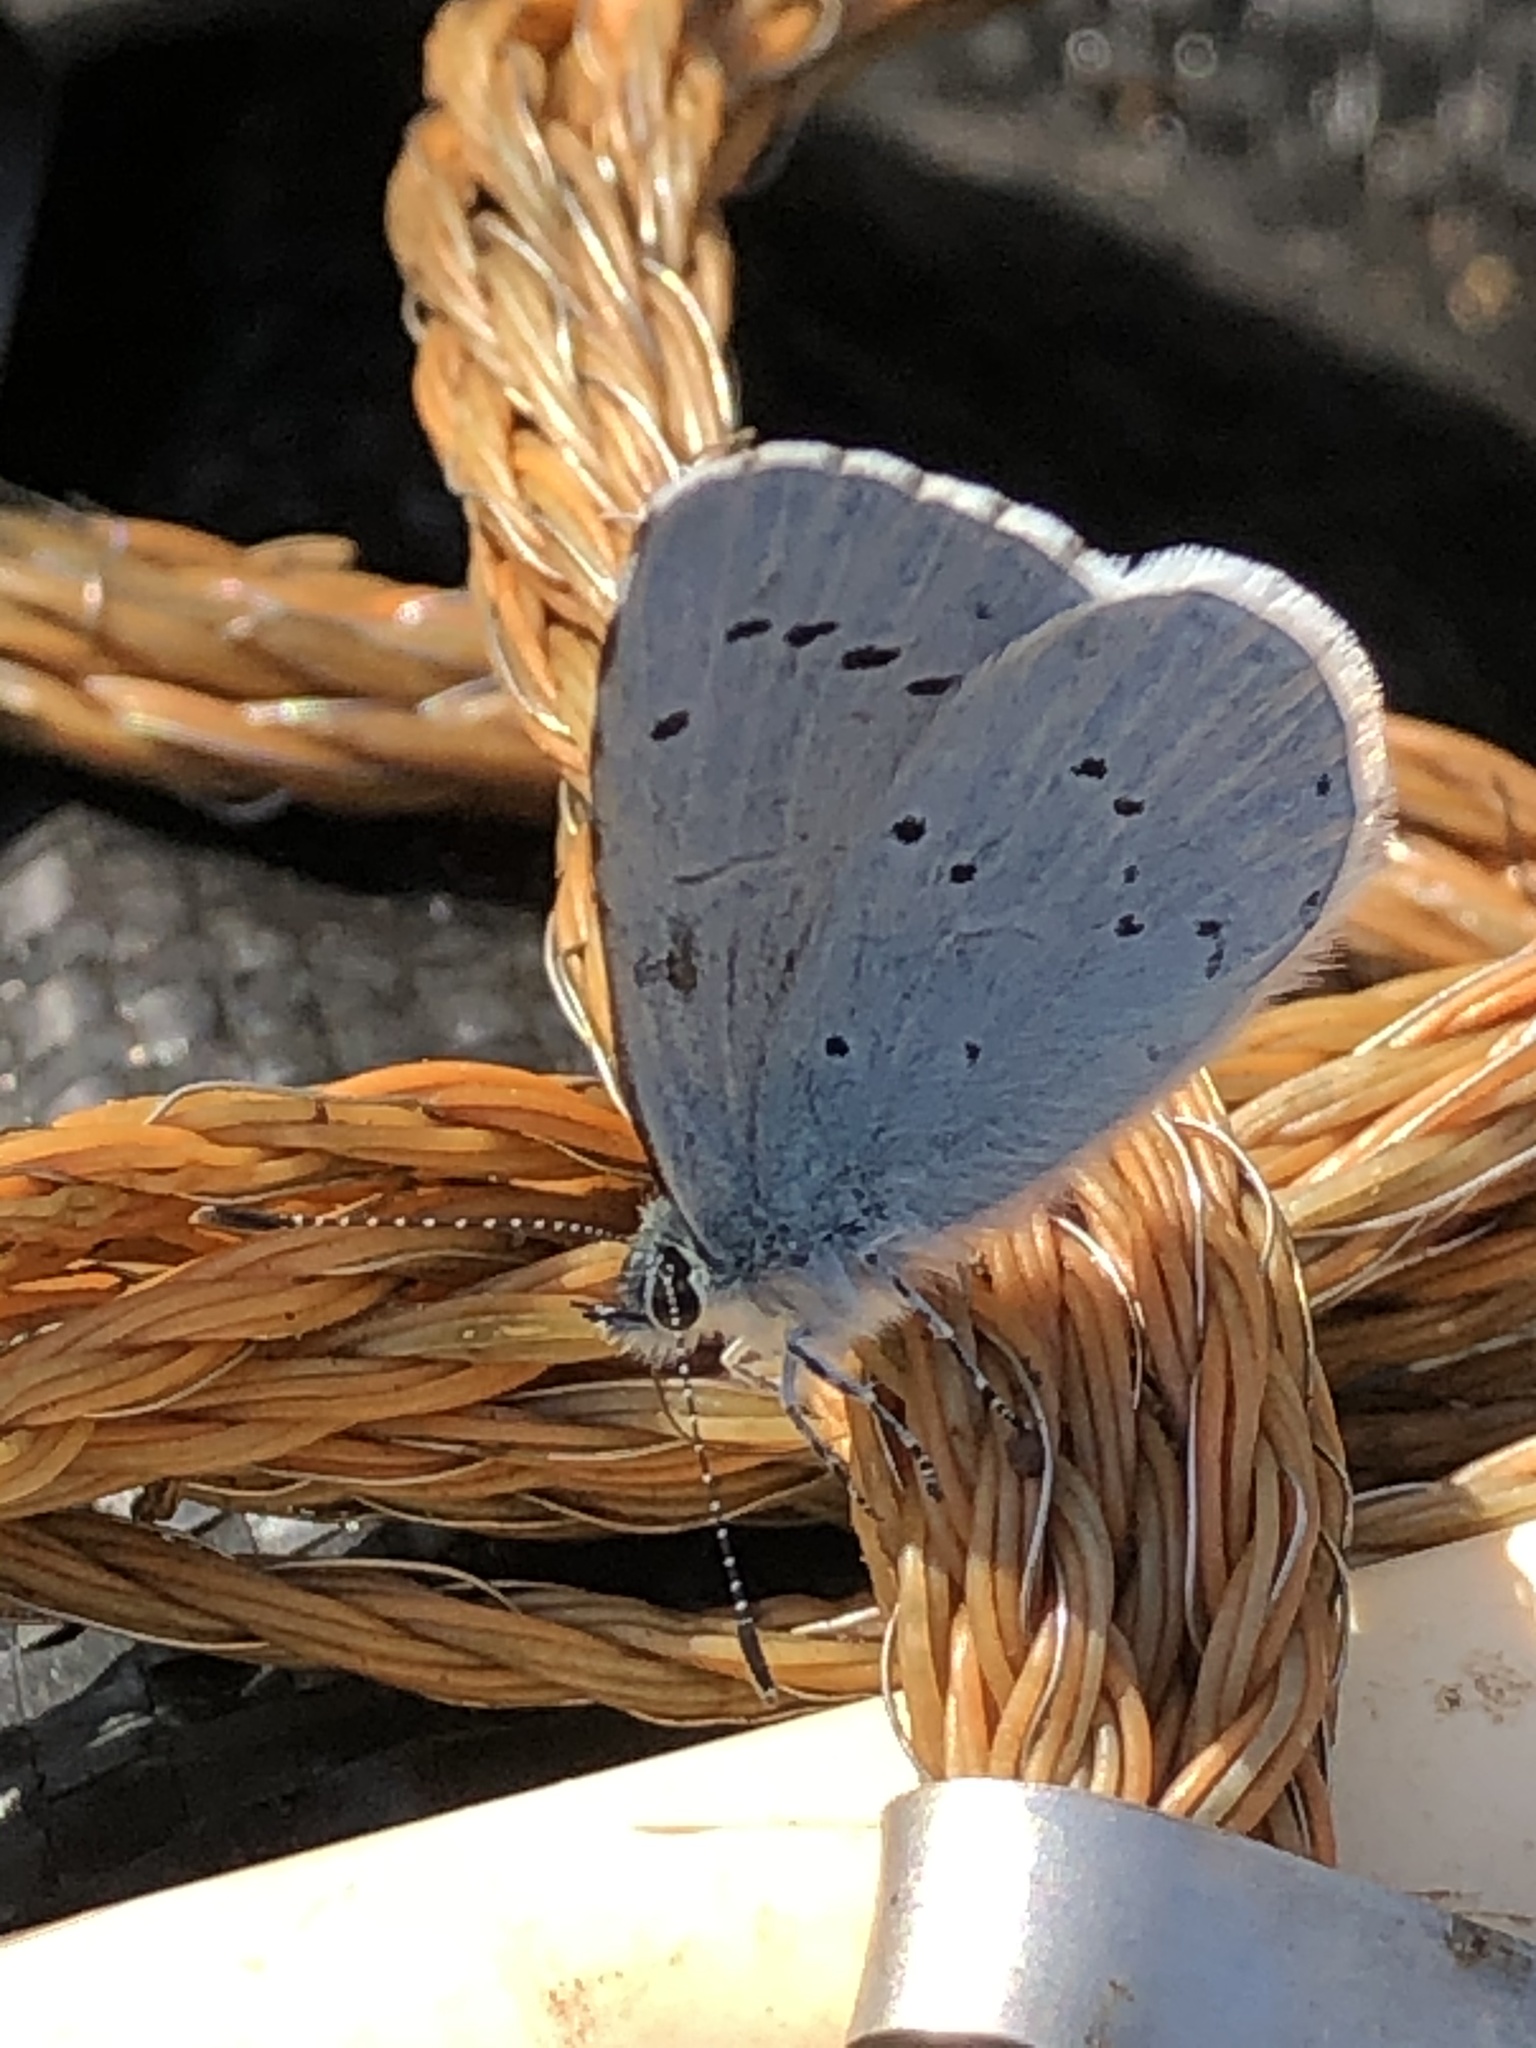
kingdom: Animalia
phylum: Arthropoda
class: Insecta
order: Lepidoptera
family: Lycaenidae
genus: Celastrina
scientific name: Celastrina argiolus
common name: Holly blue
